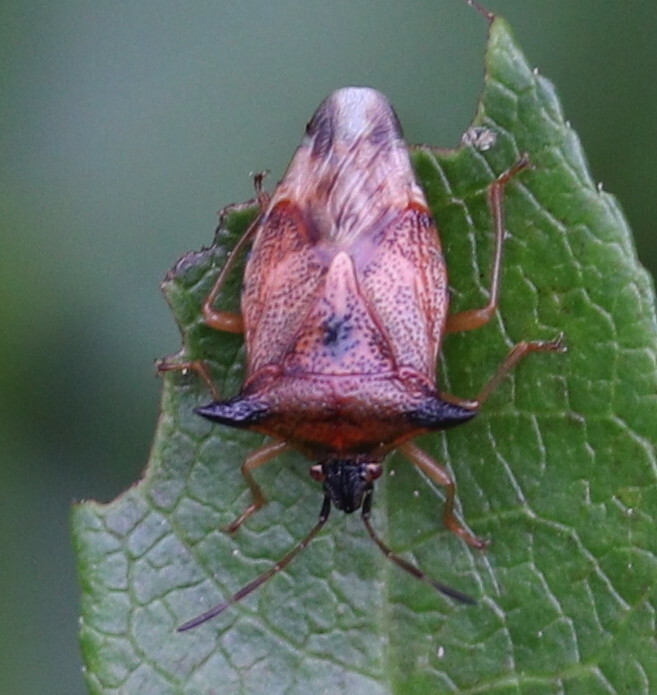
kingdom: Animalia
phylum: Arthropoda
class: Insecta
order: Hemiptera
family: Acanthosomatidae
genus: Elasmucha
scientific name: Elasmucha ferrugata
